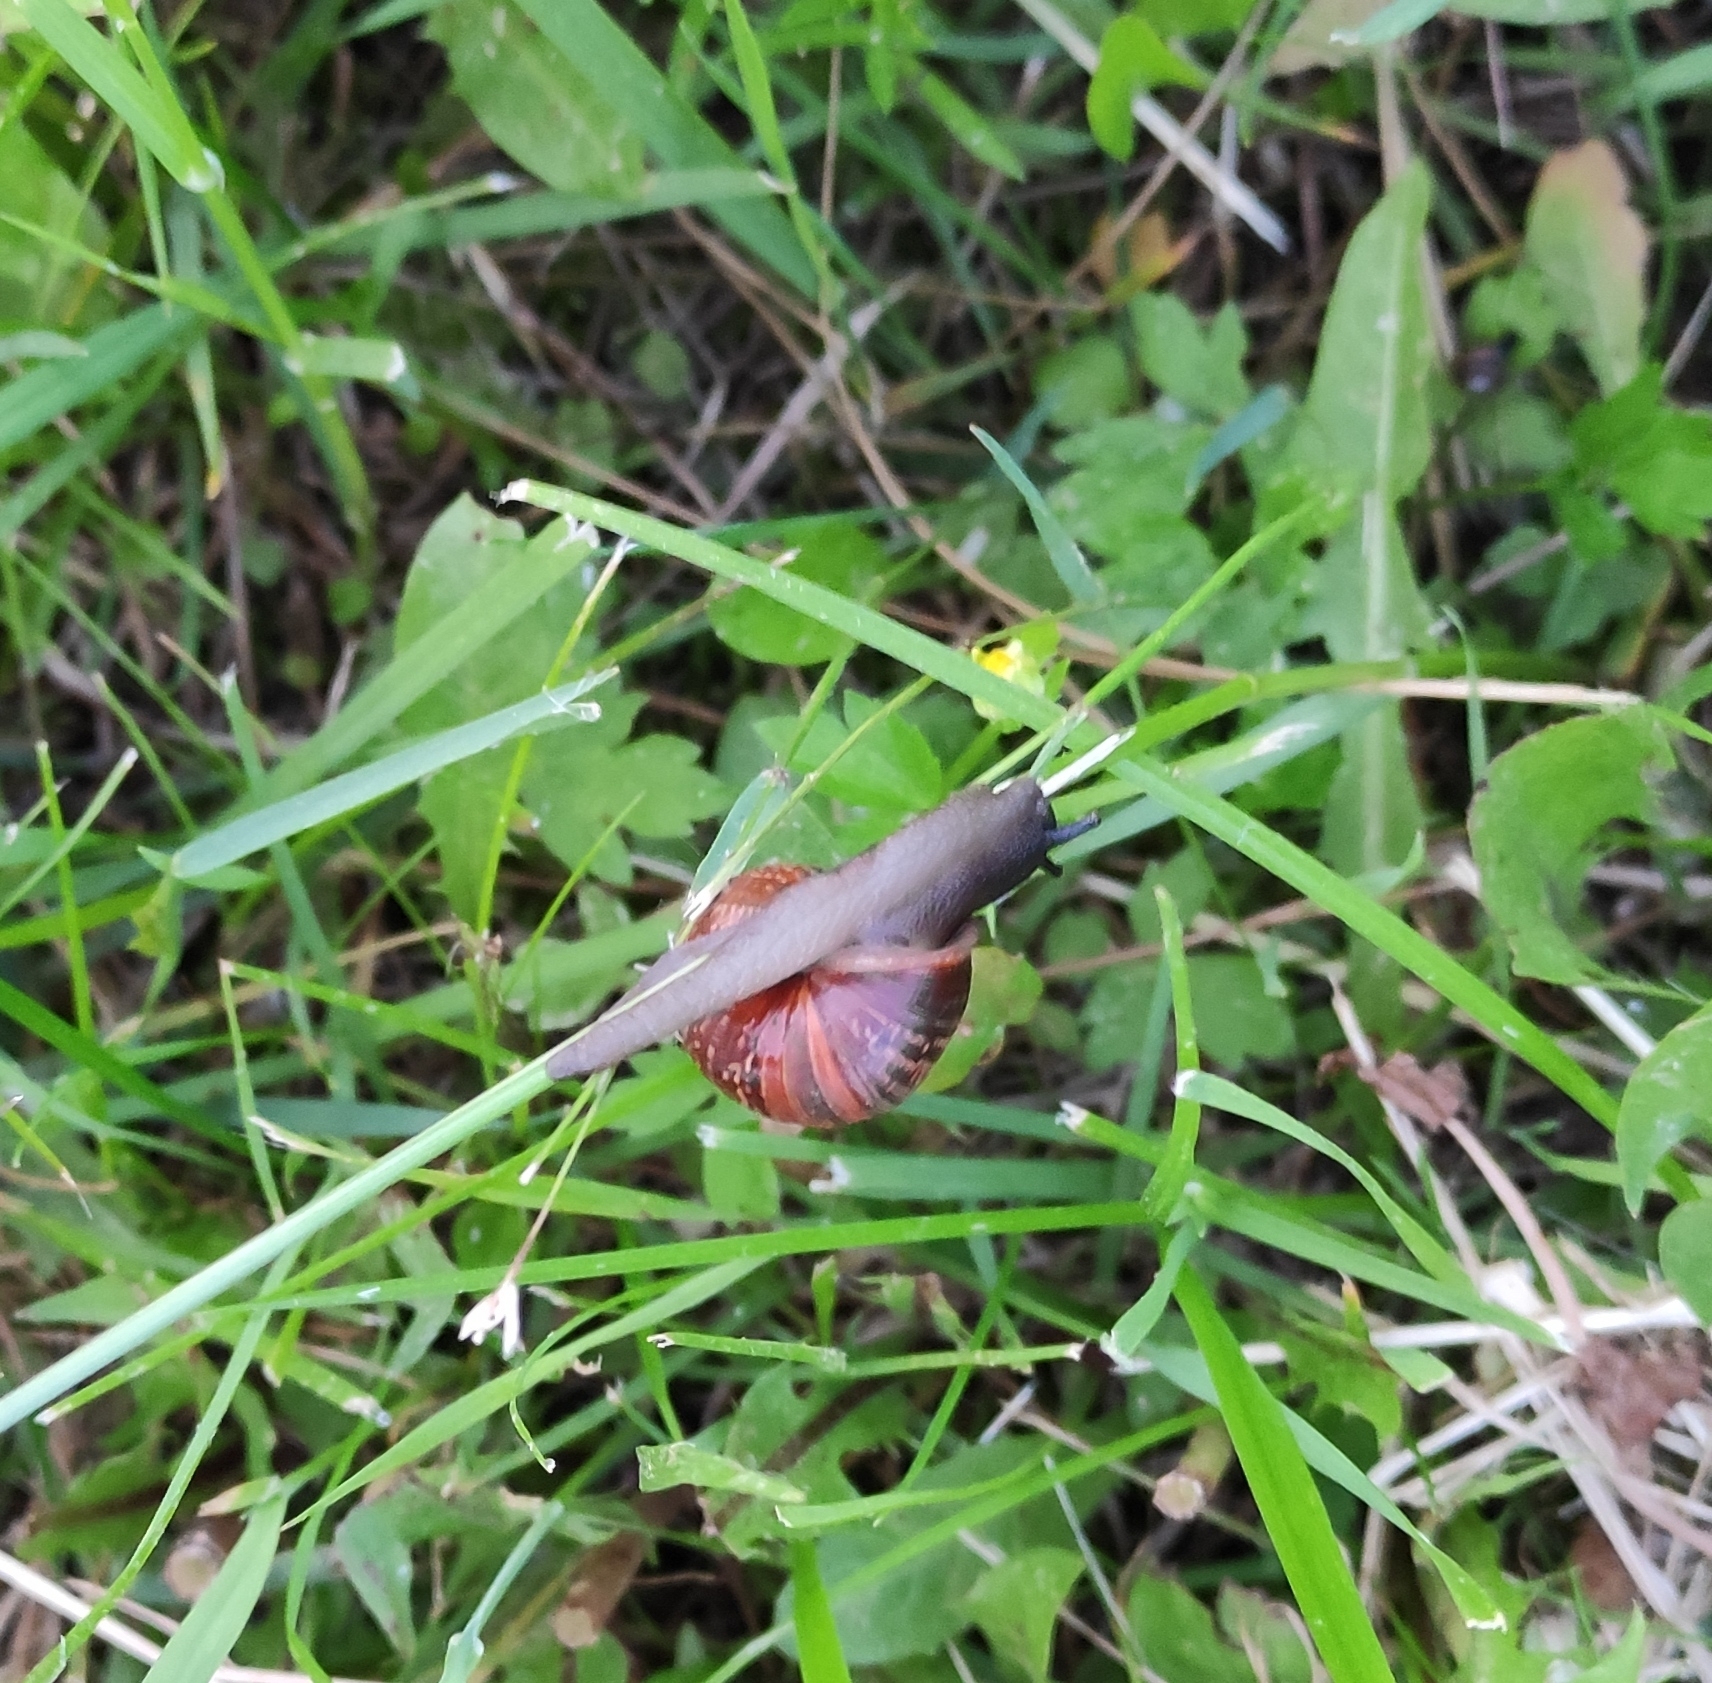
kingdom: Animalia
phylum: Mollusca
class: Gastropoda
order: Stylommatophora
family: Helicidae
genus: Arianta
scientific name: Arianta arbustorum
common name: Copse snail
